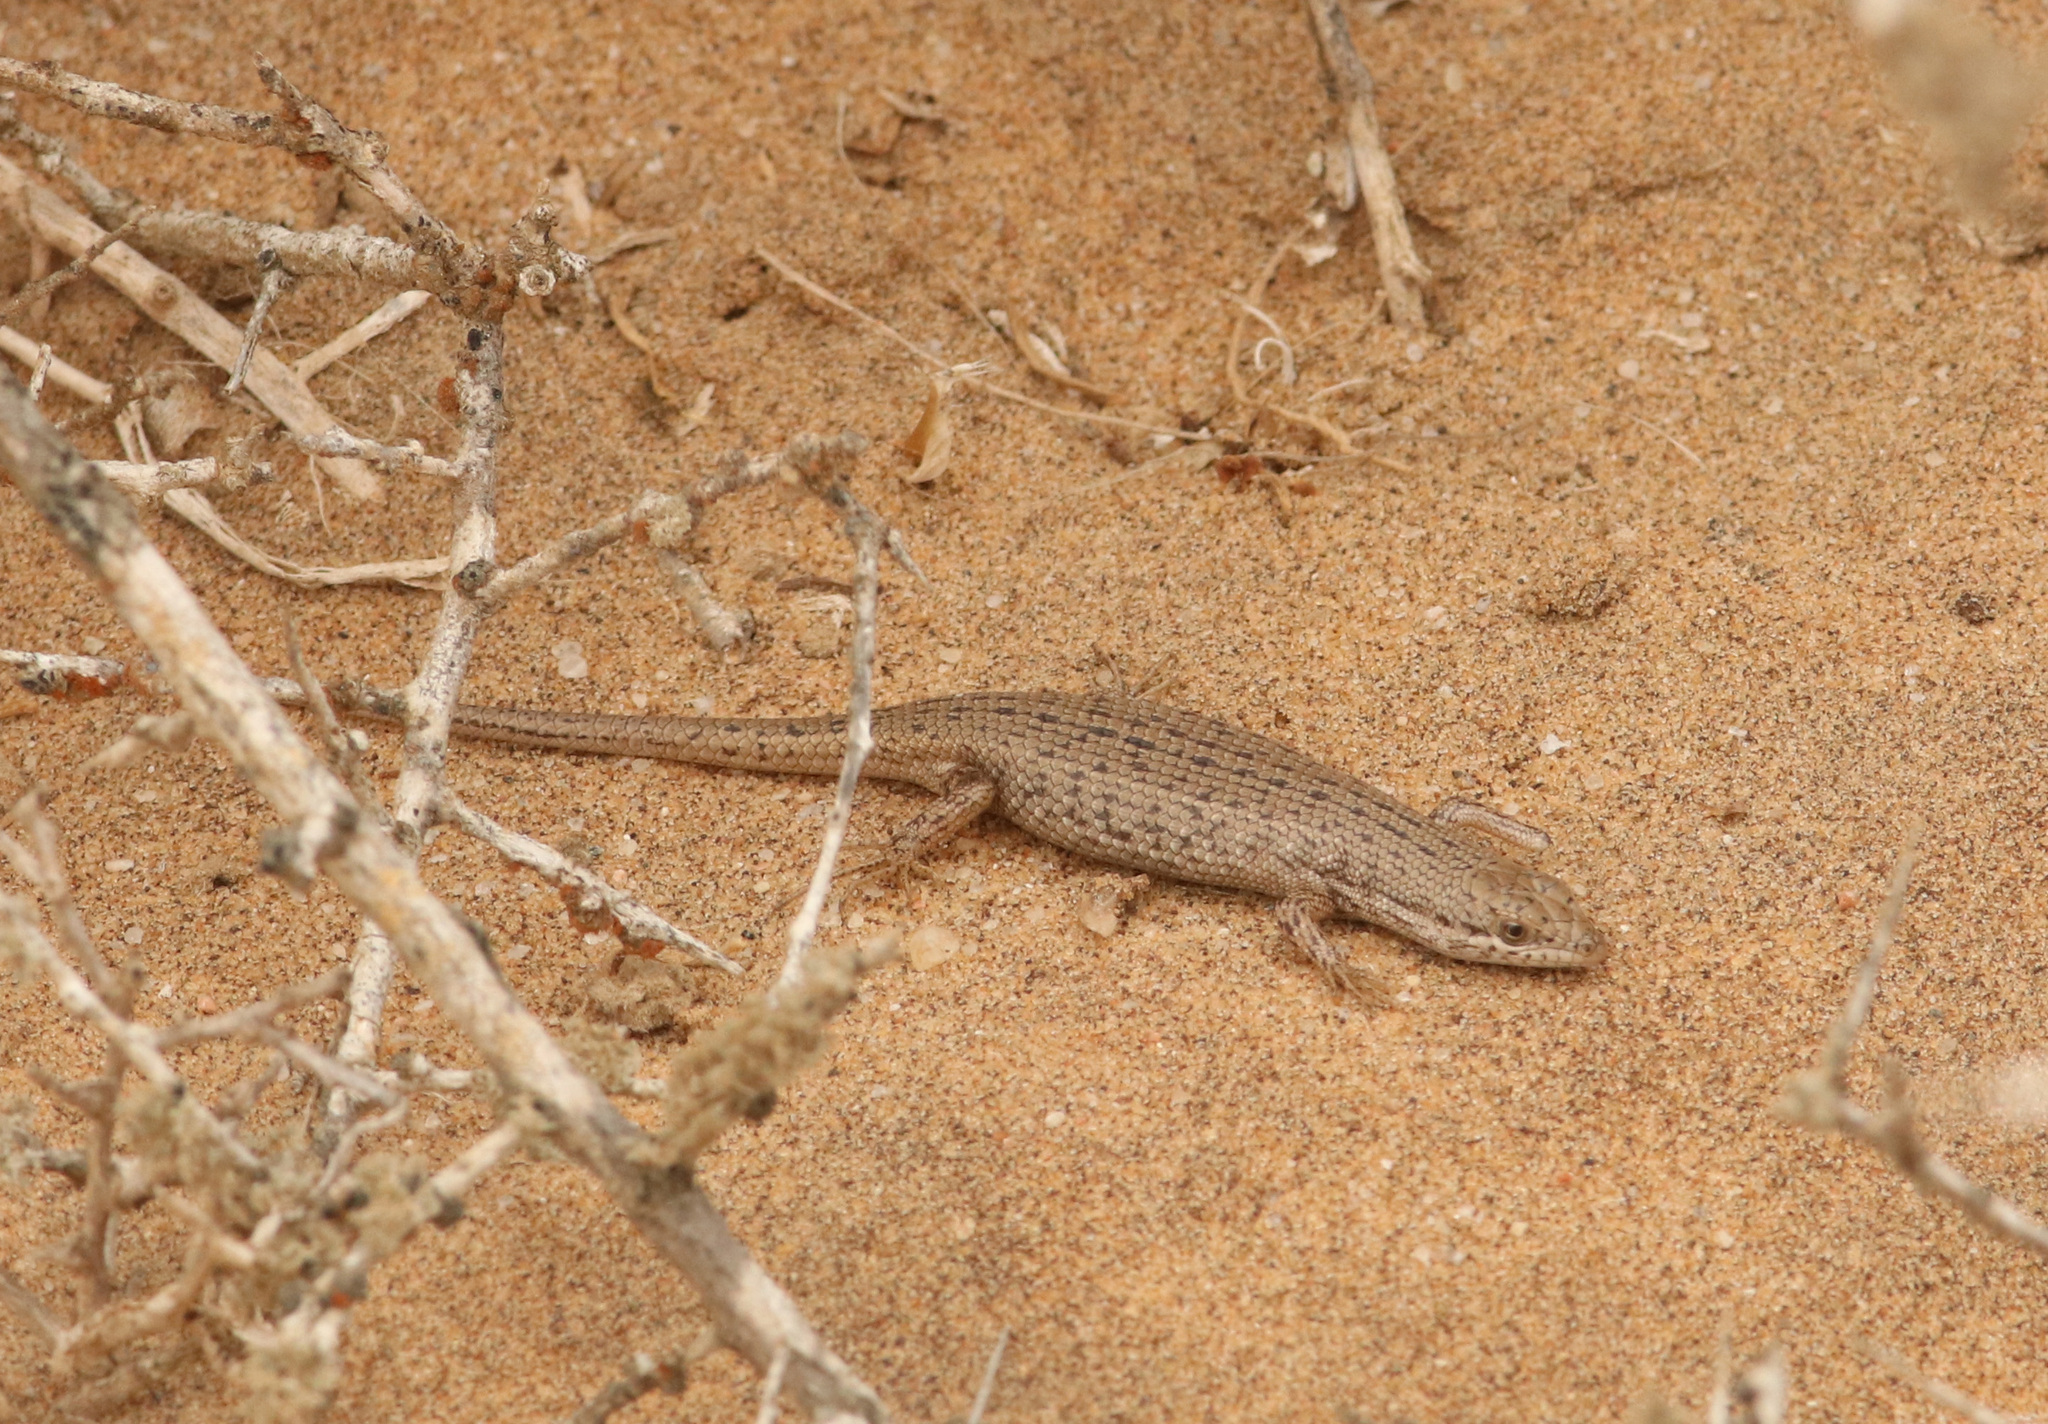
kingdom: Animalia
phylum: Chordata
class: Squamata
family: Scincidae
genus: Trachylepis
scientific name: Trachylepis variegata
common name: Variegated skink
